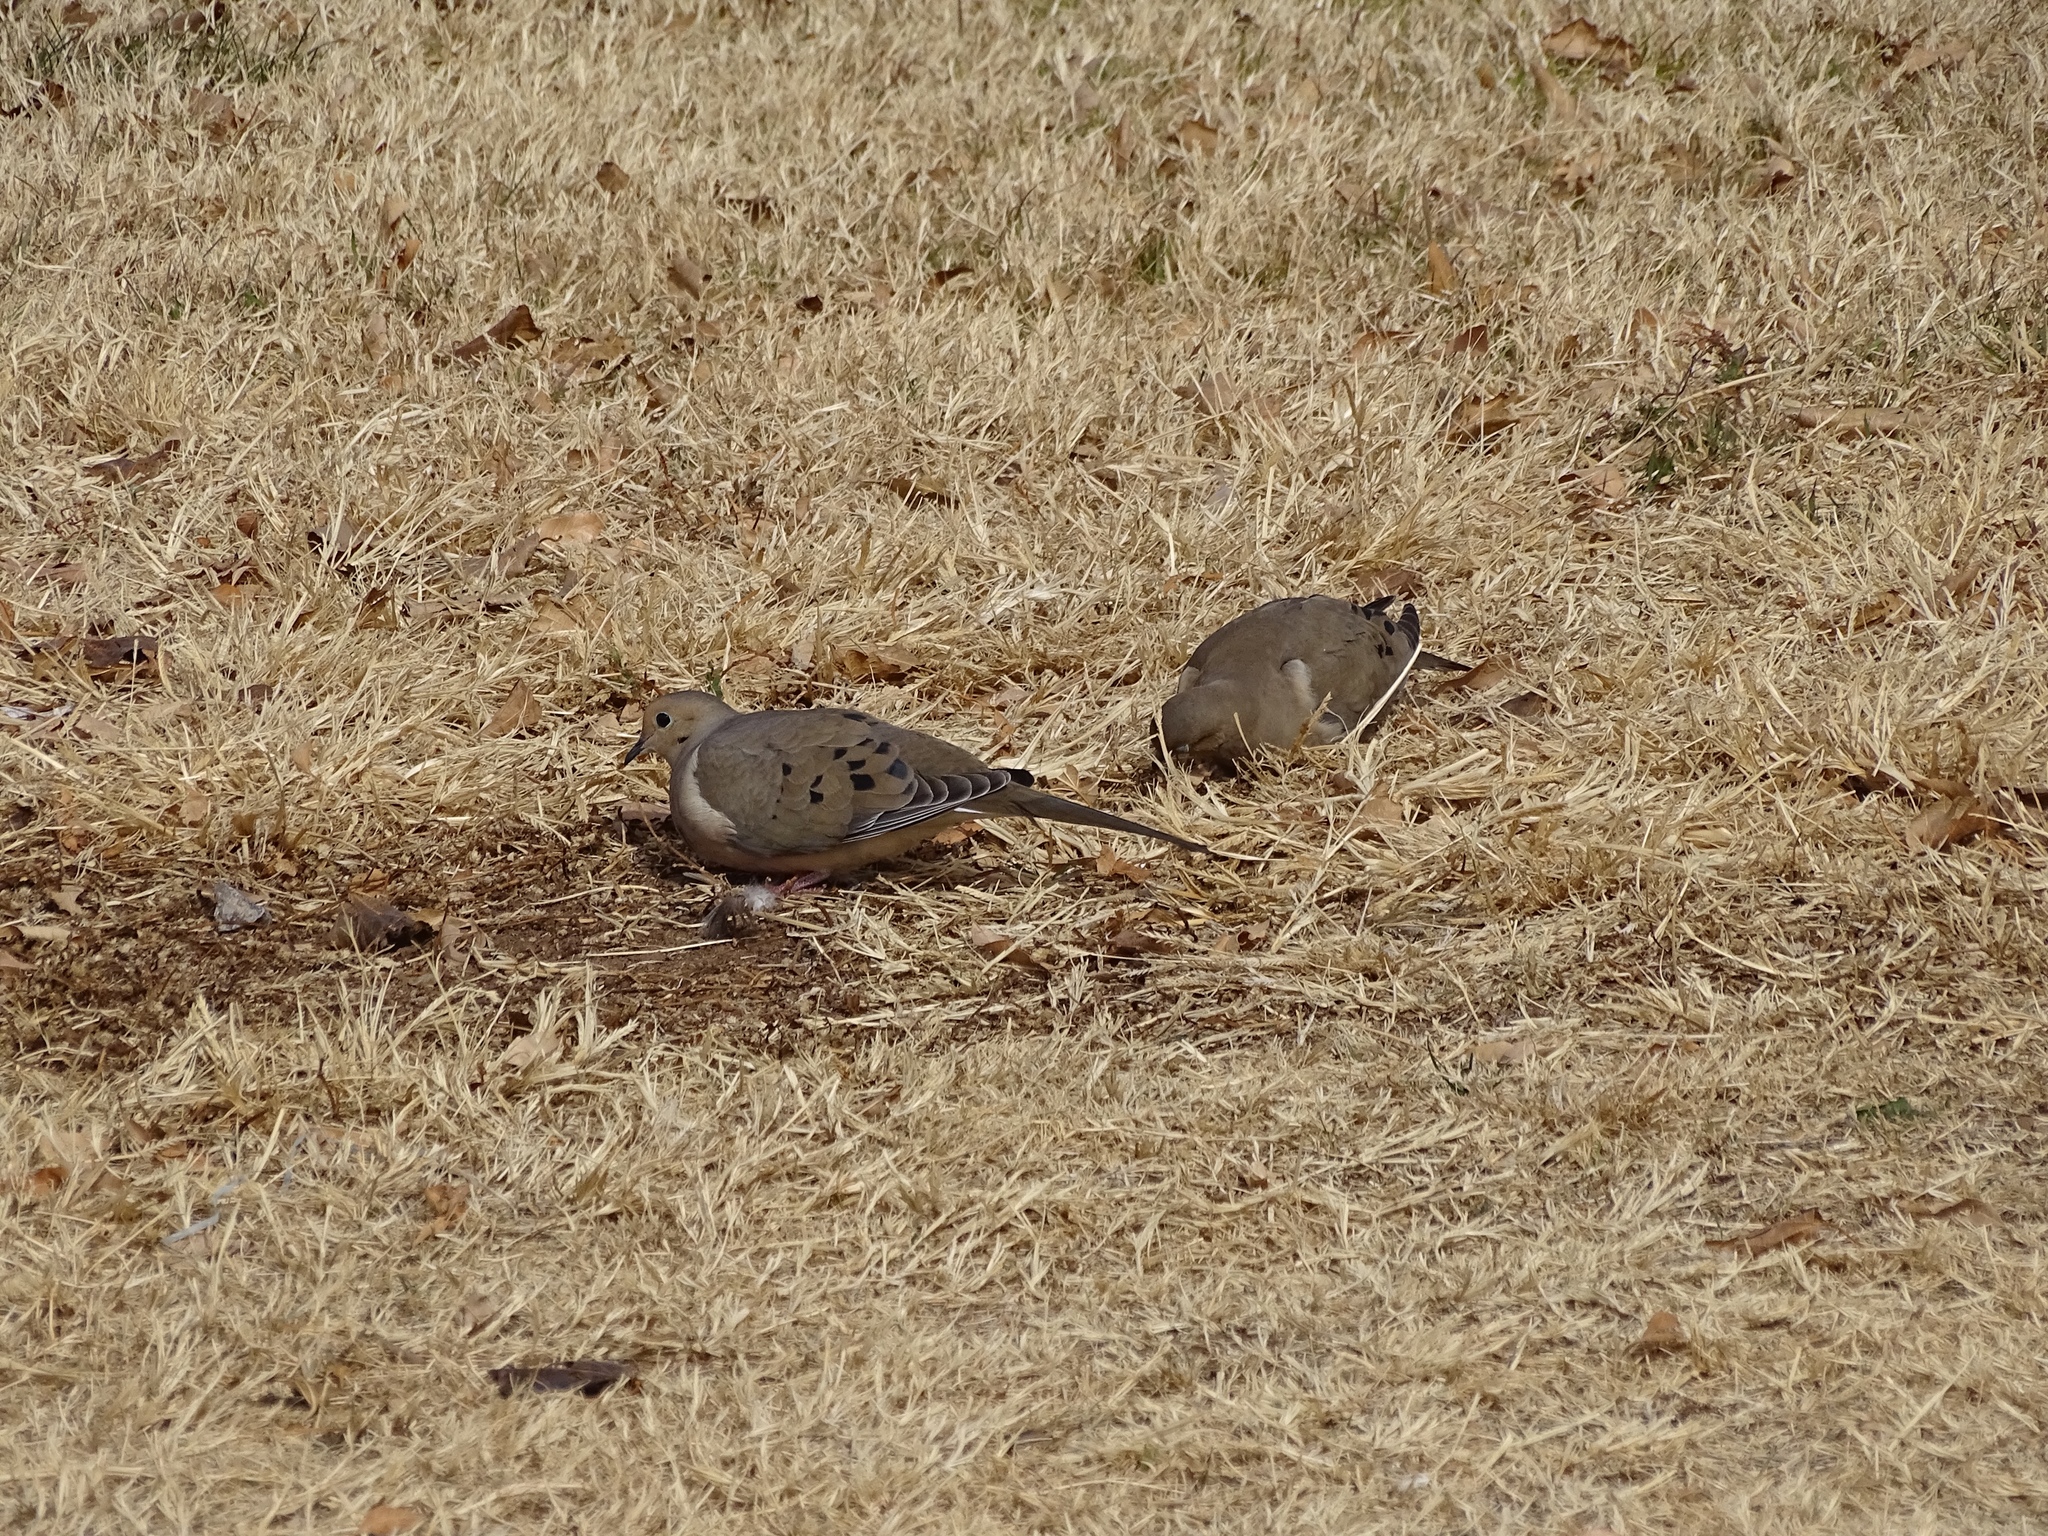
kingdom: Animalia
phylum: Chordata
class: Aves
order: Columbiformes
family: Columbidae
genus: Zenaida
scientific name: Zenaida macroura
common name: Mourning dove
